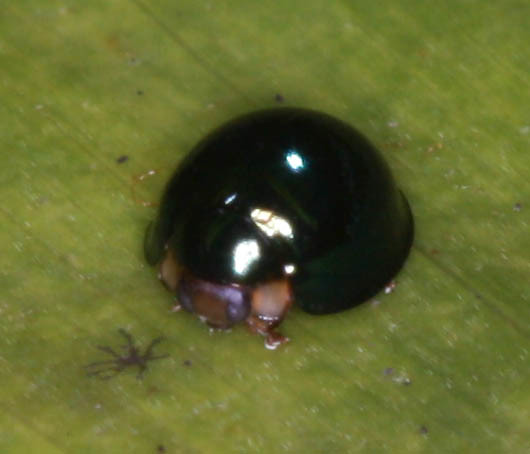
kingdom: Animalia
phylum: Arthropoda
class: Insecta
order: Coleoptera
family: Coccinellidae
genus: Halmus
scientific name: Halmus chalybeus
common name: Steel blue ladybird beetle
